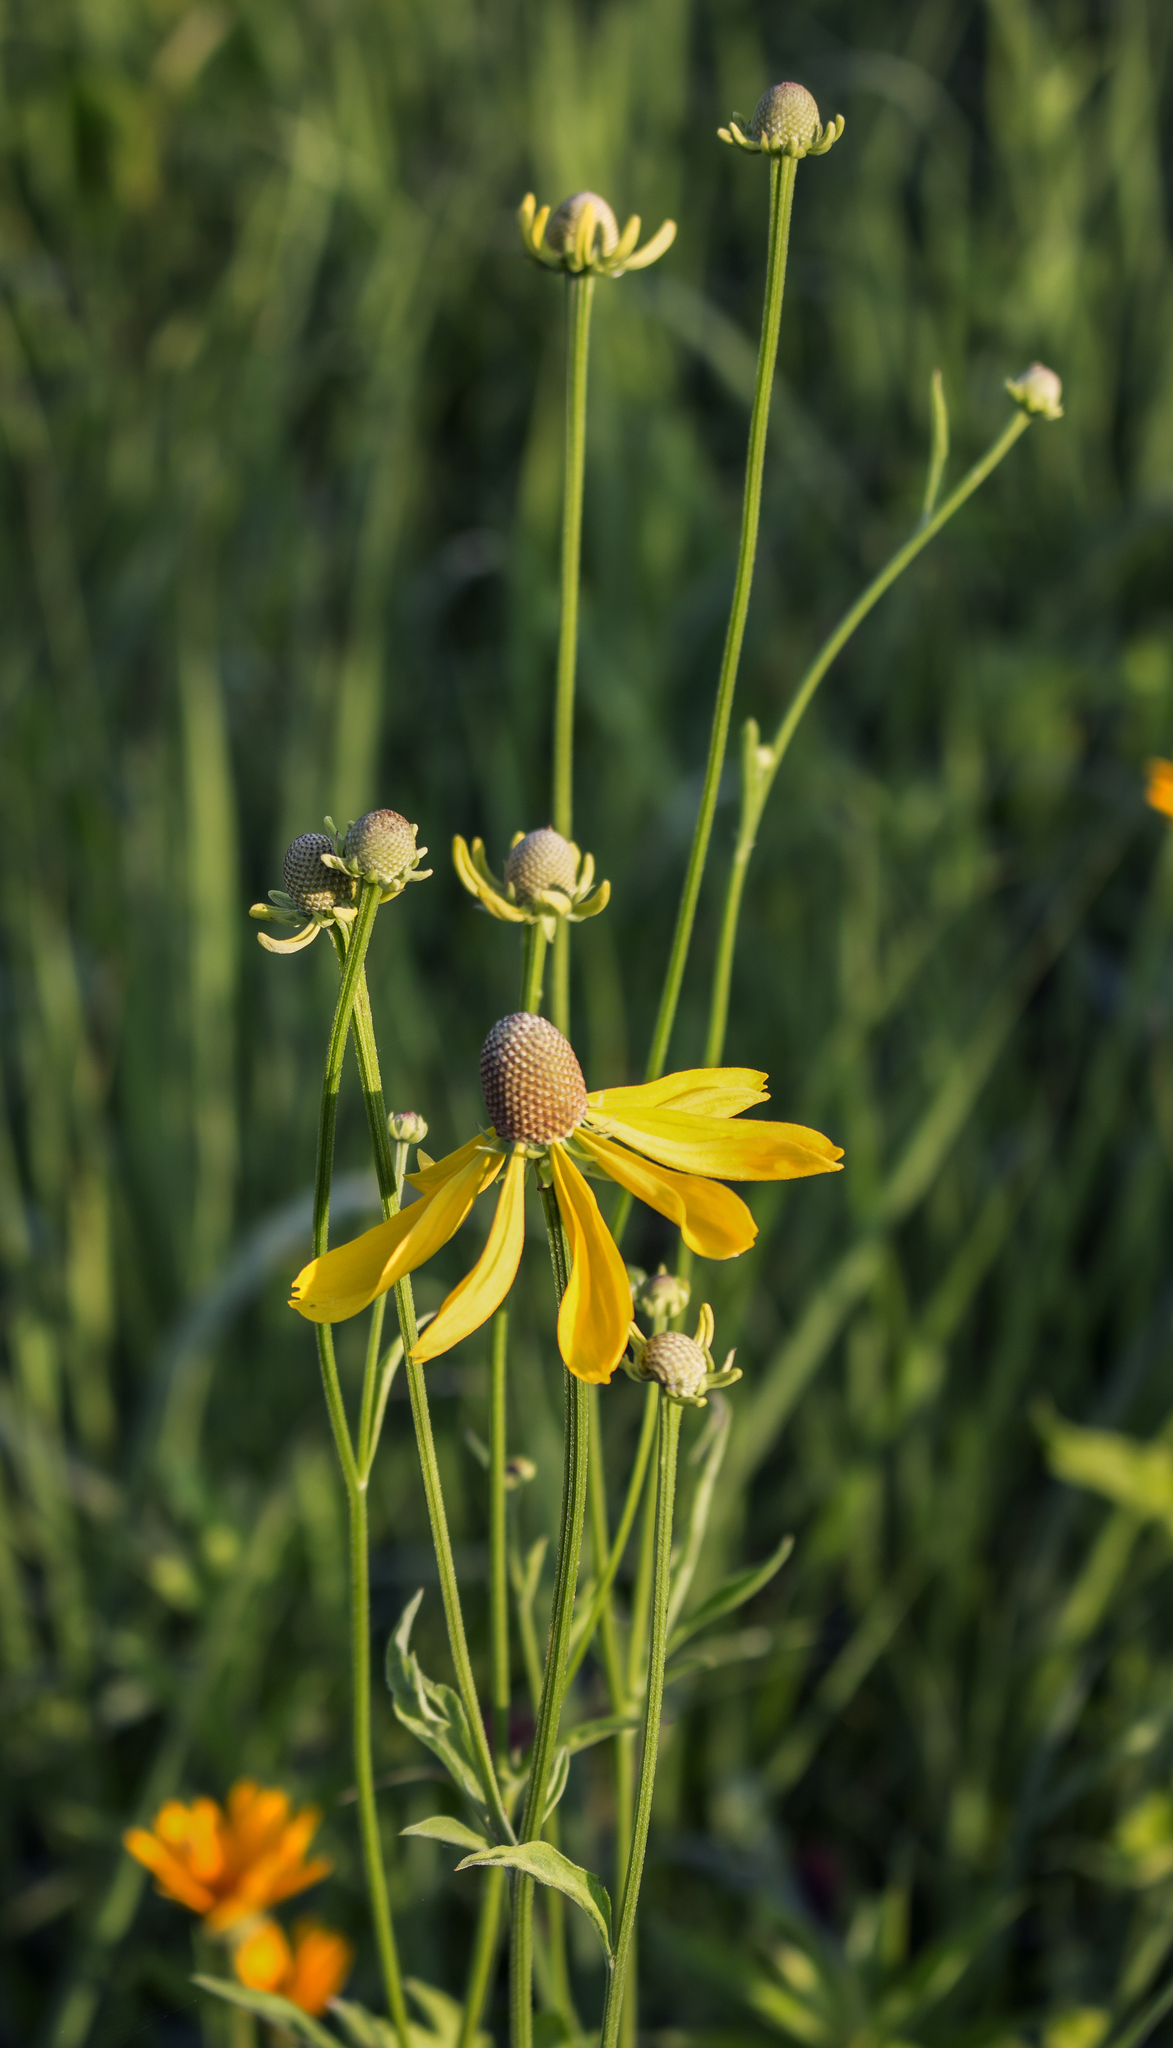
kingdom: Plantae
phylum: Tracheophyta
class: Magnoliopsida
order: Asterales
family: Asteraceae
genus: Ratibida
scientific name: Ratibida pinnata
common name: Drooping prairie-coneflower
